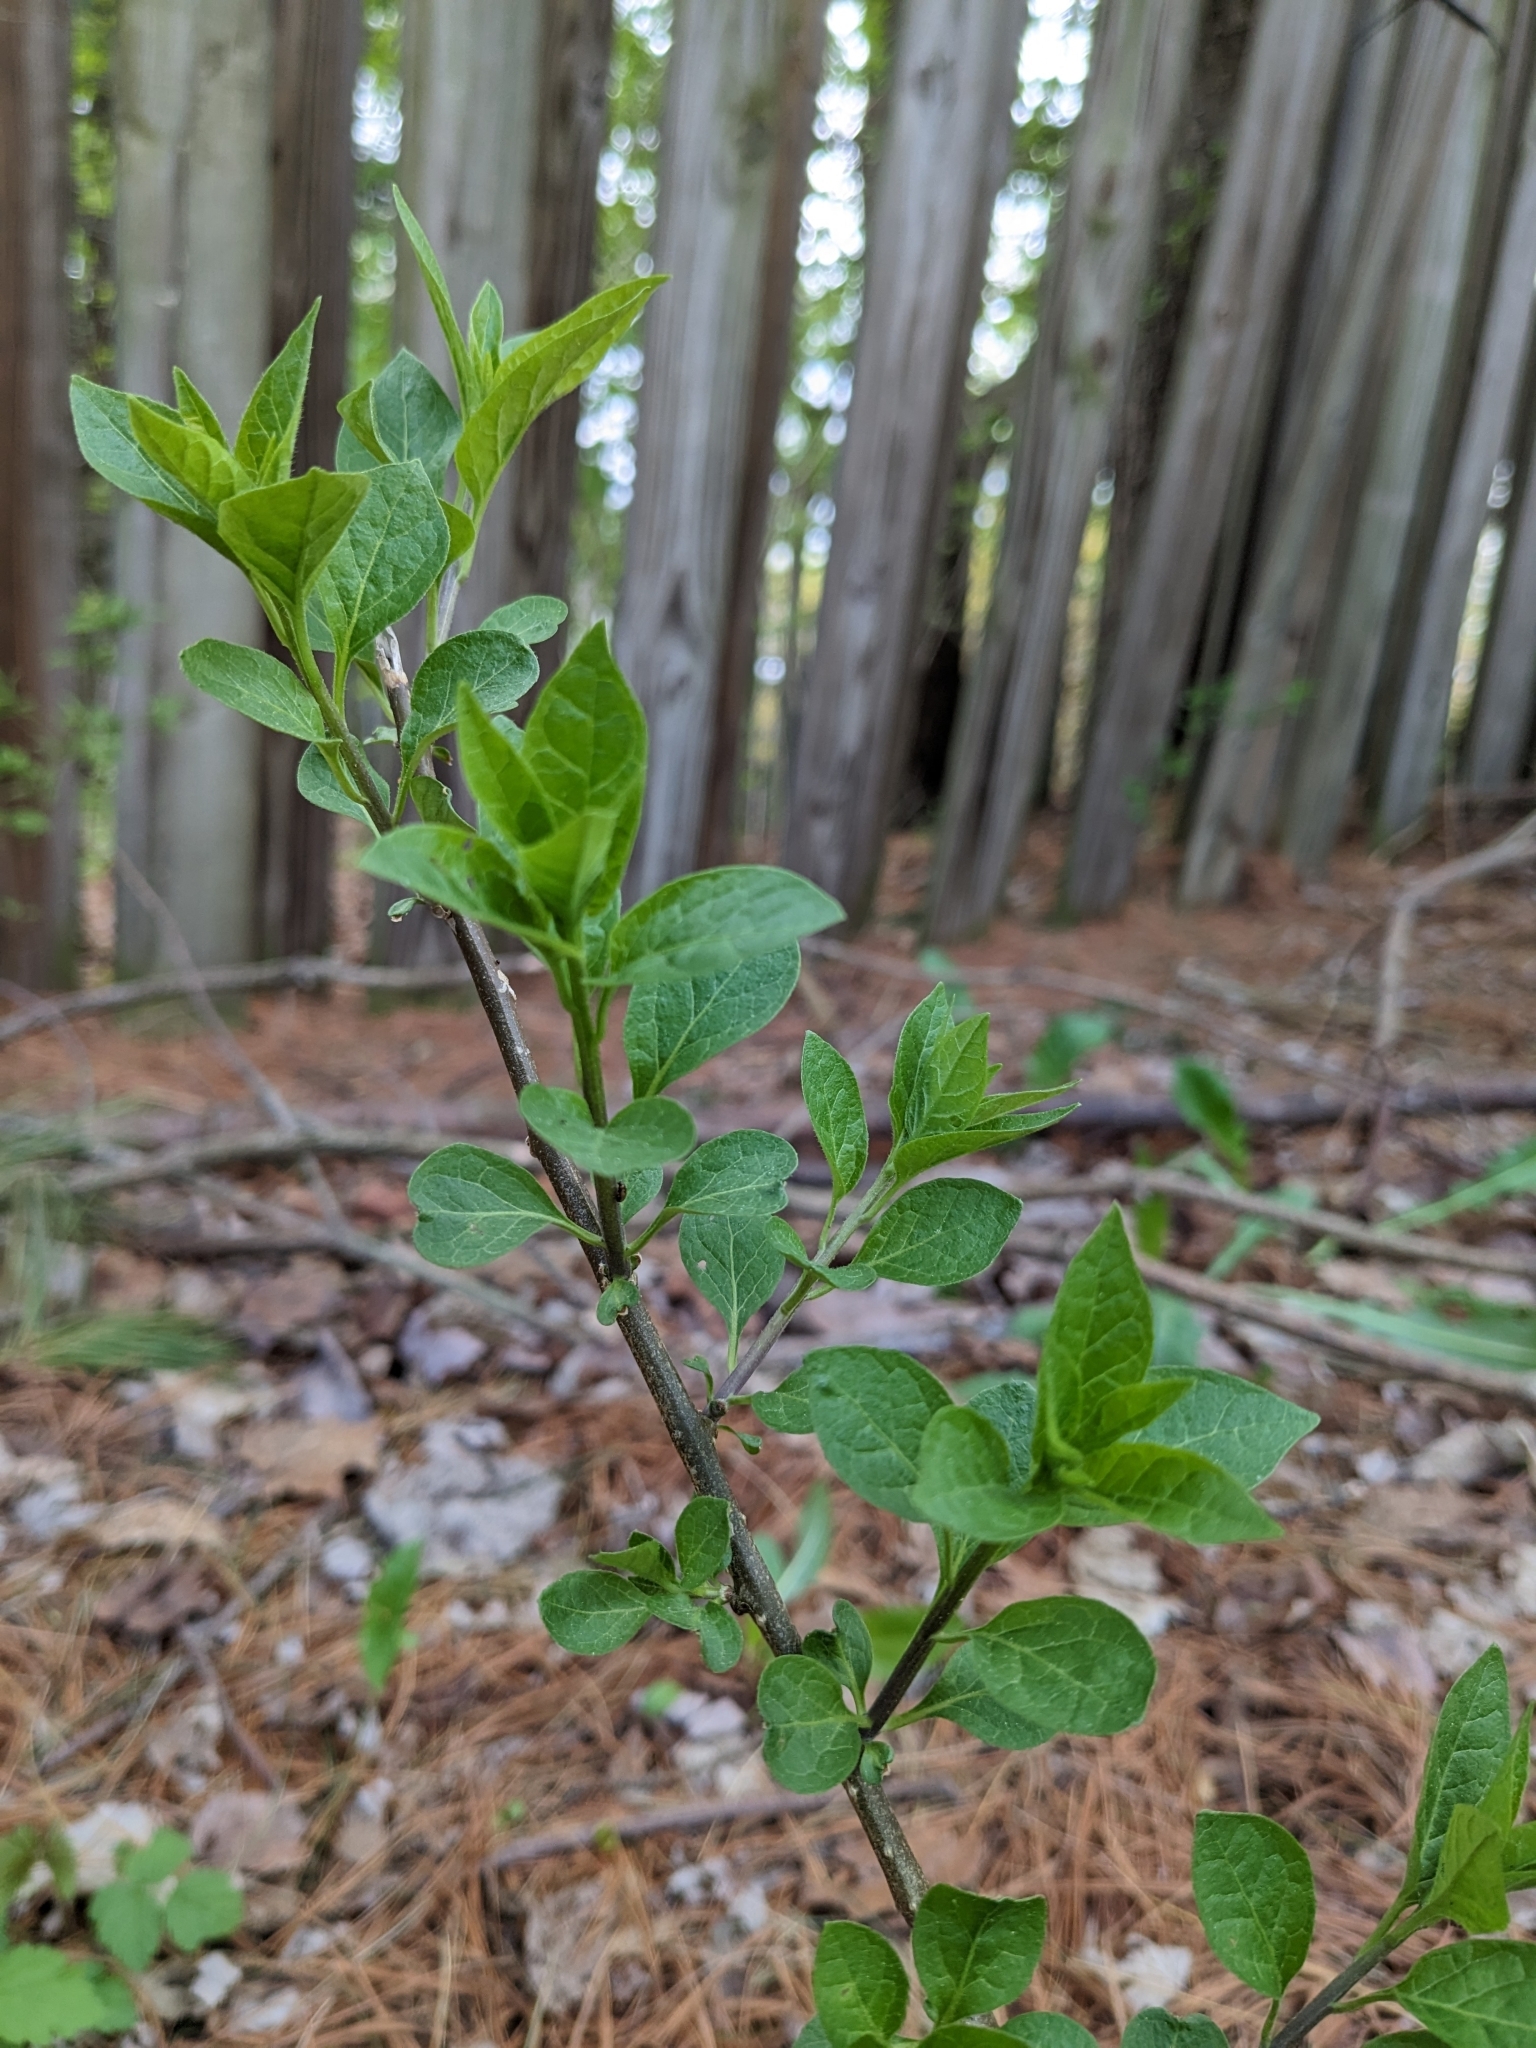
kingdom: Plantae
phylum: Tracheophyta
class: Magnoliopsida
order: Solanales
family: Solanaceae
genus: Solanum
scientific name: Solanum dulcamara
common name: Climbing nightshade
